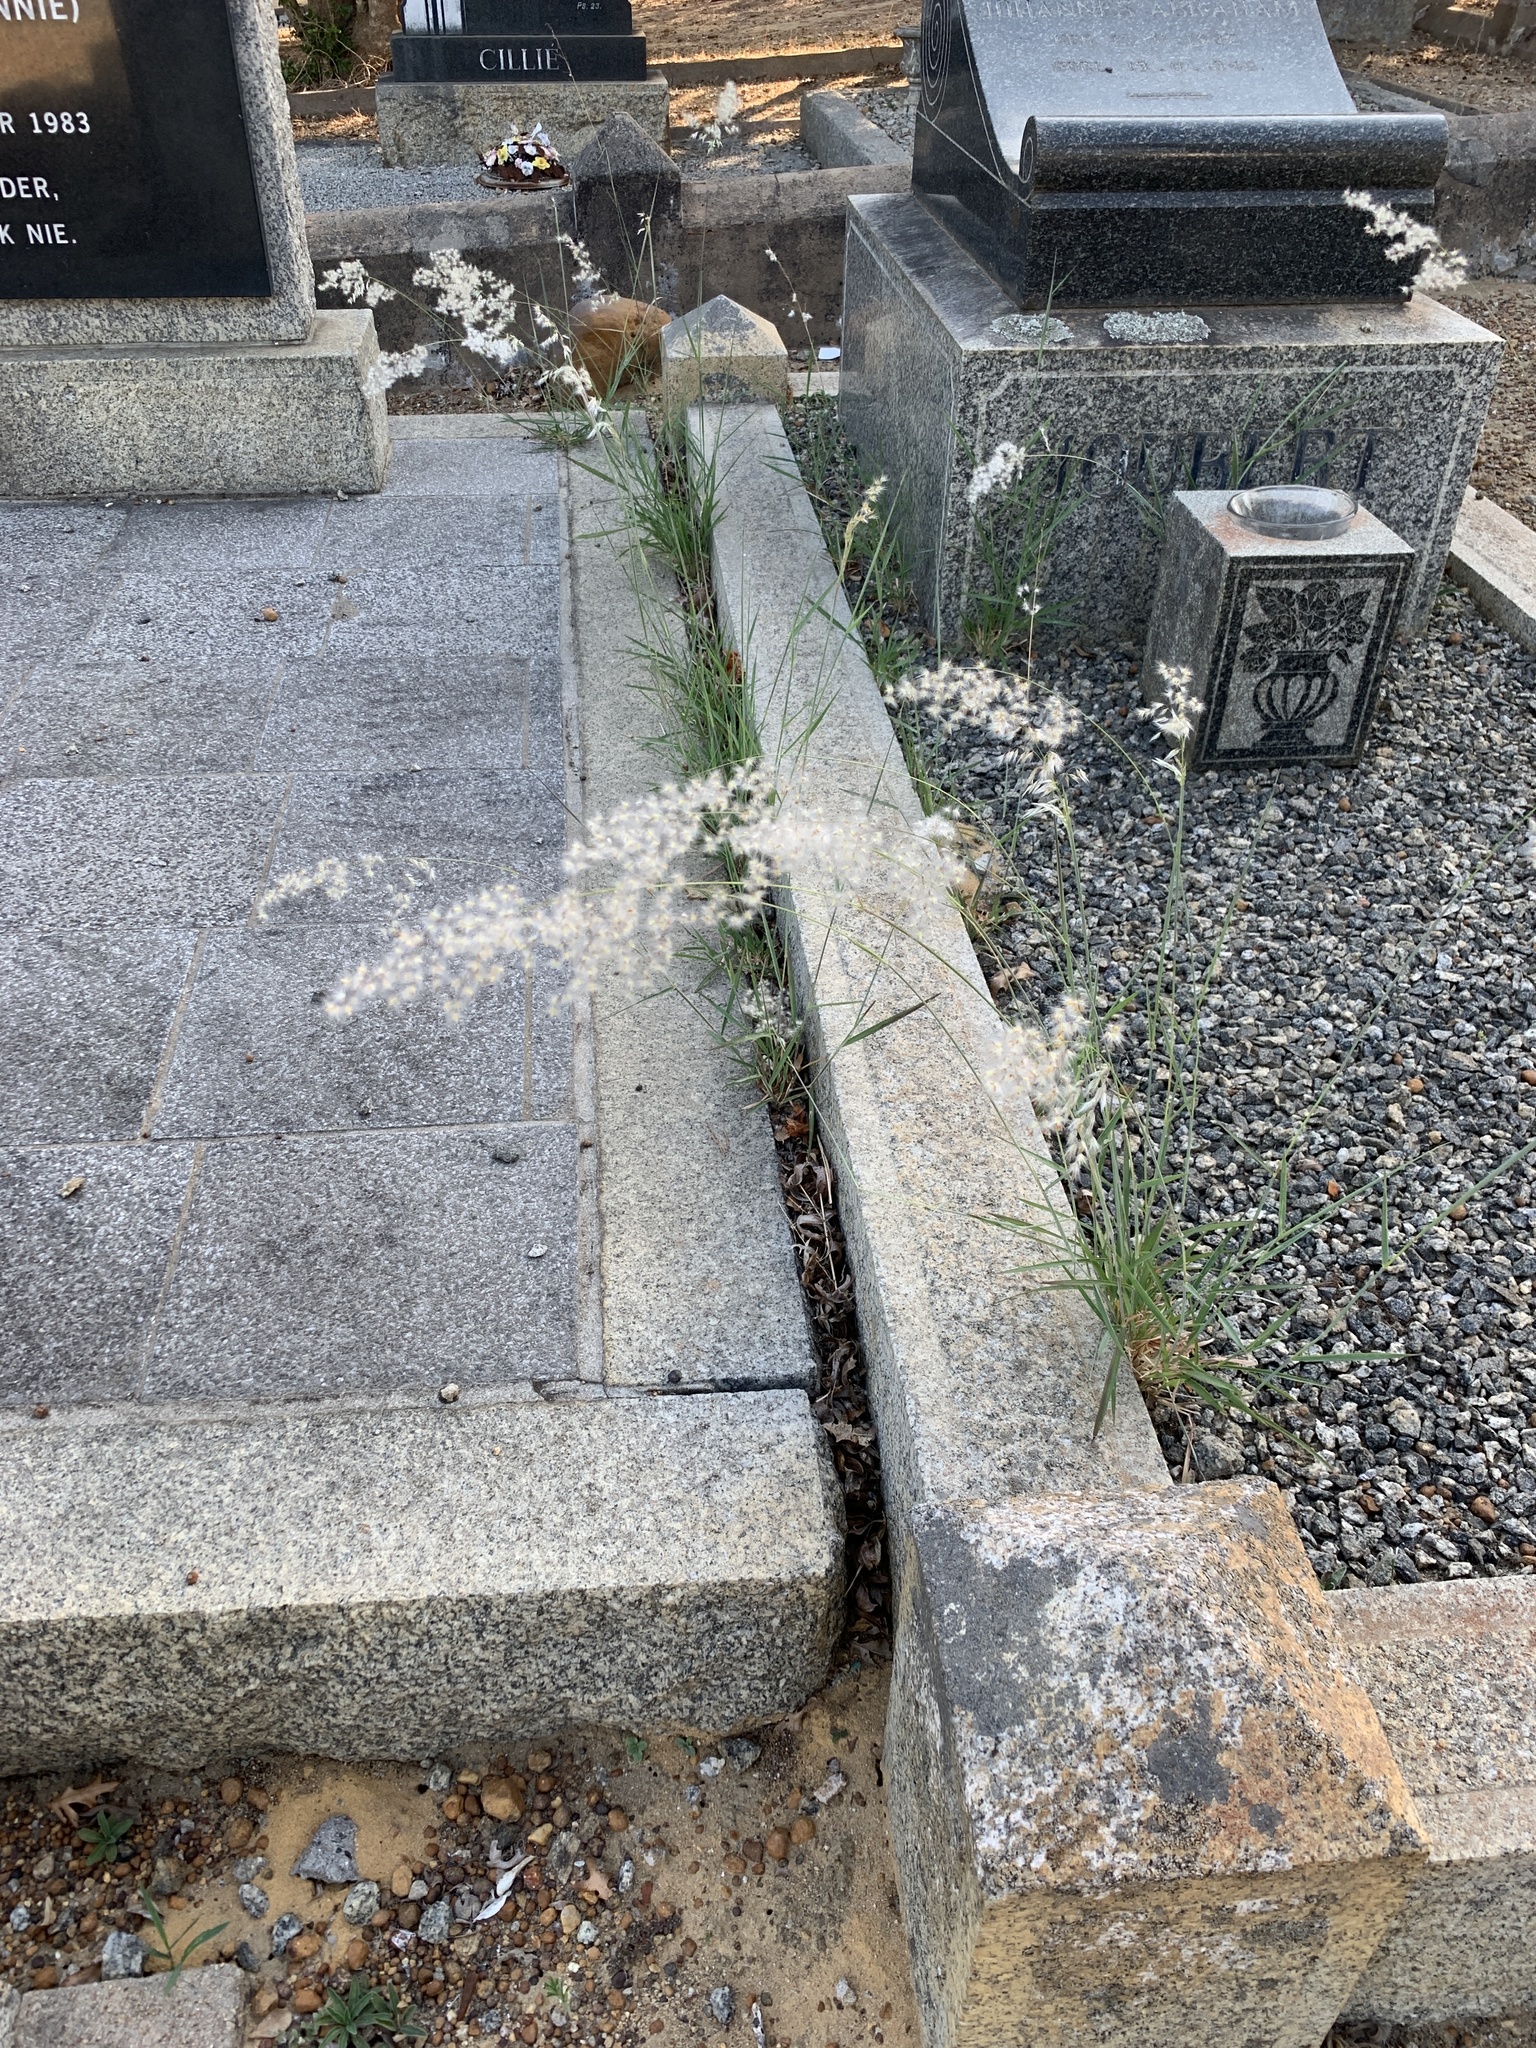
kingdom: Plantae
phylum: Tracheophyta
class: Liliopsida
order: Poales
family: Poaceae
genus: Melinis
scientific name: Melinis repens
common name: Rose natal grass
